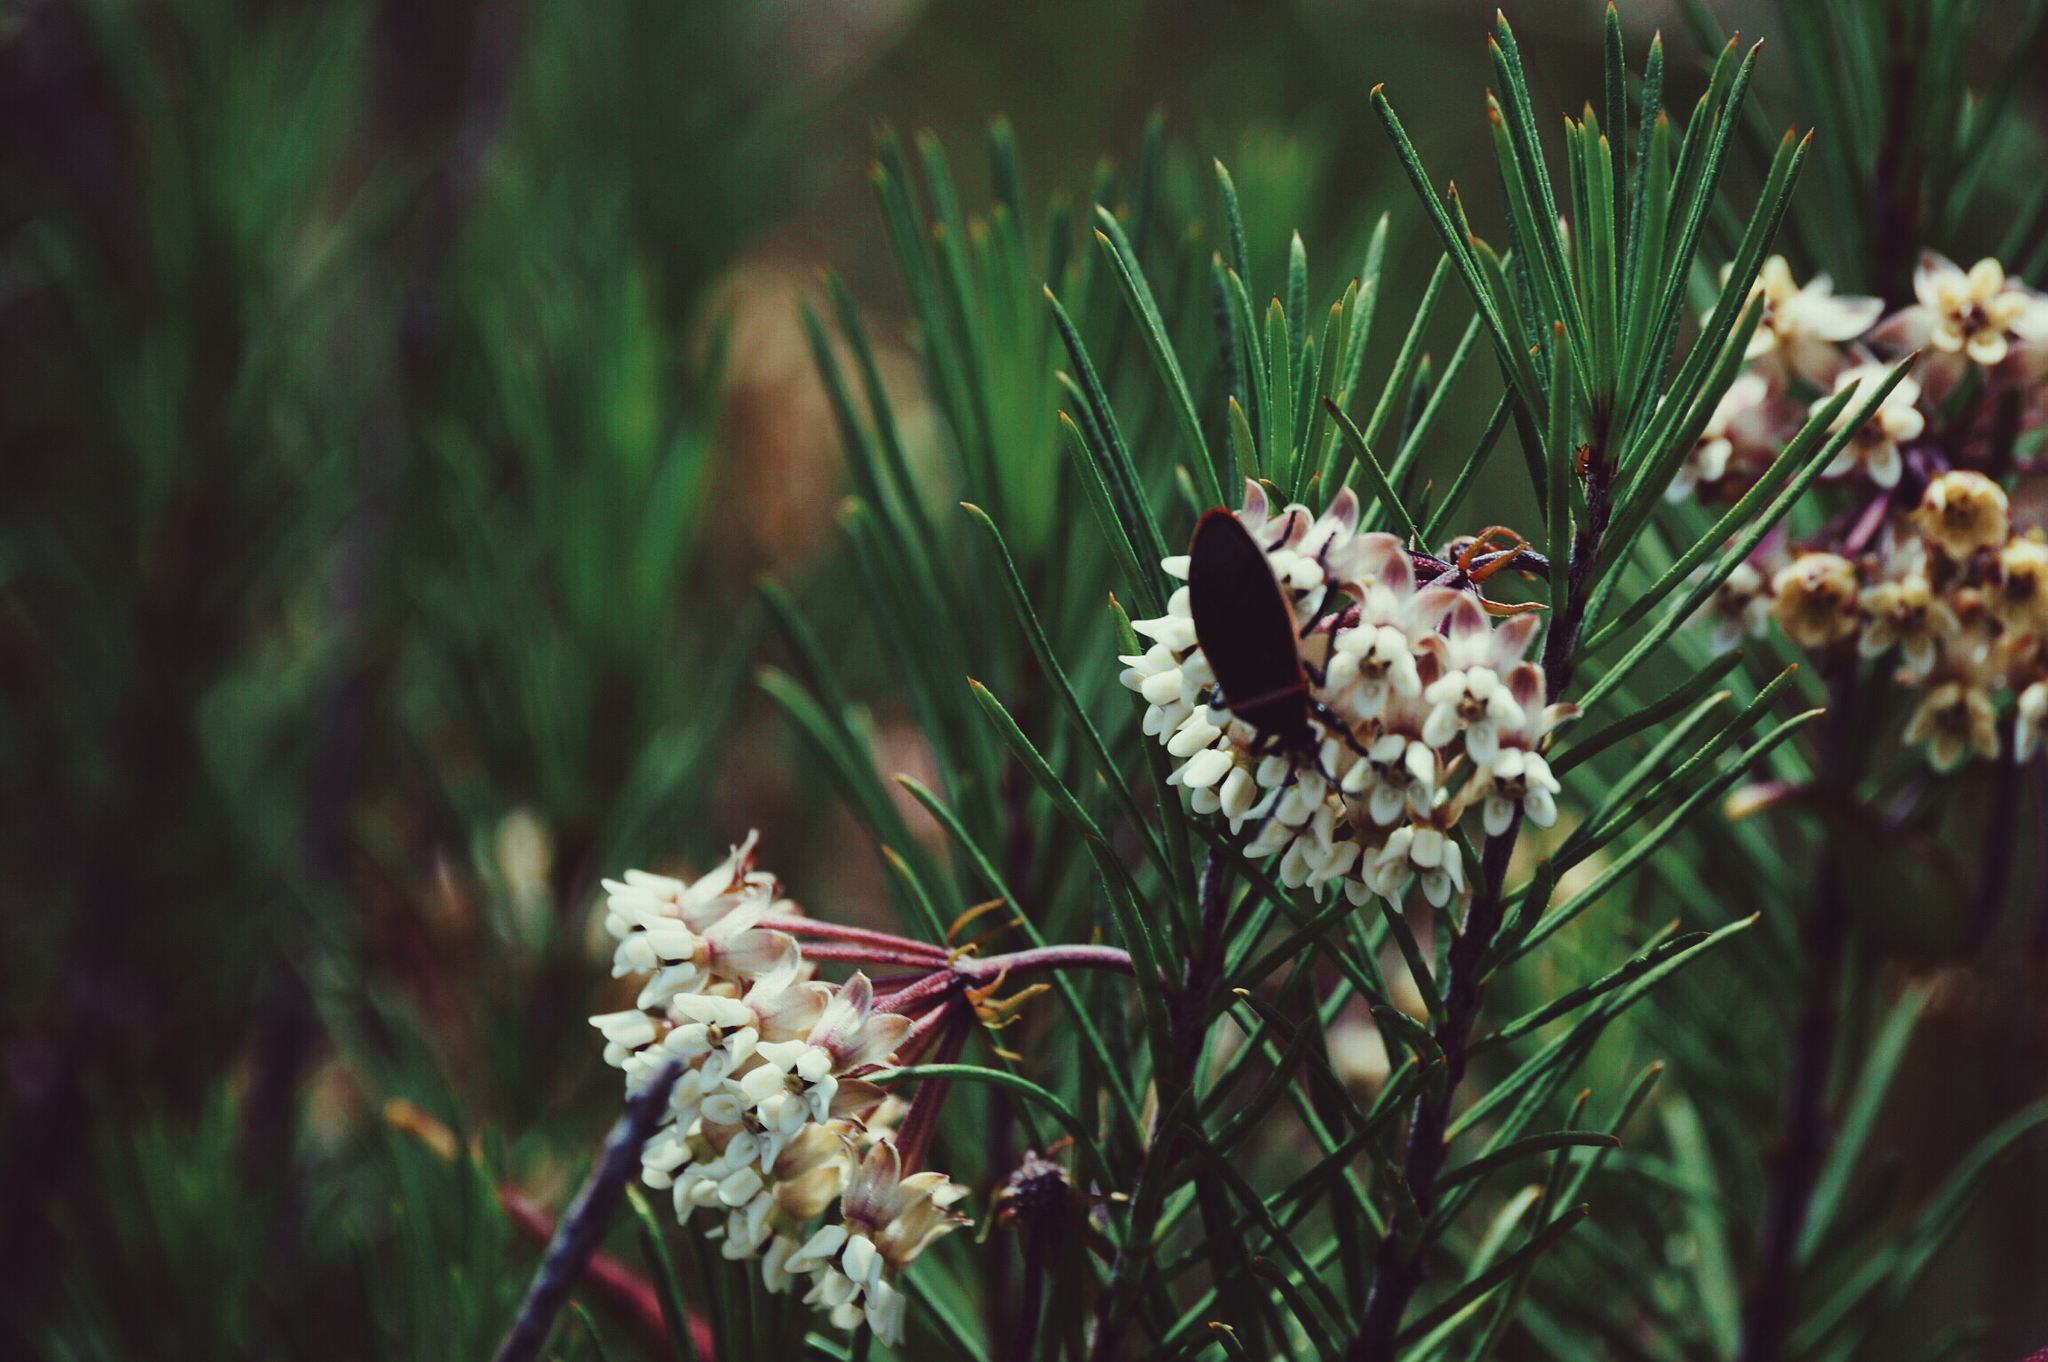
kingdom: Plantae
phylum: Tracheophyta
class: Magnoliopsida
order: Gentianales
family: Apocynaceae
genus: Asclepias
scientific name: Asclepias linaria
